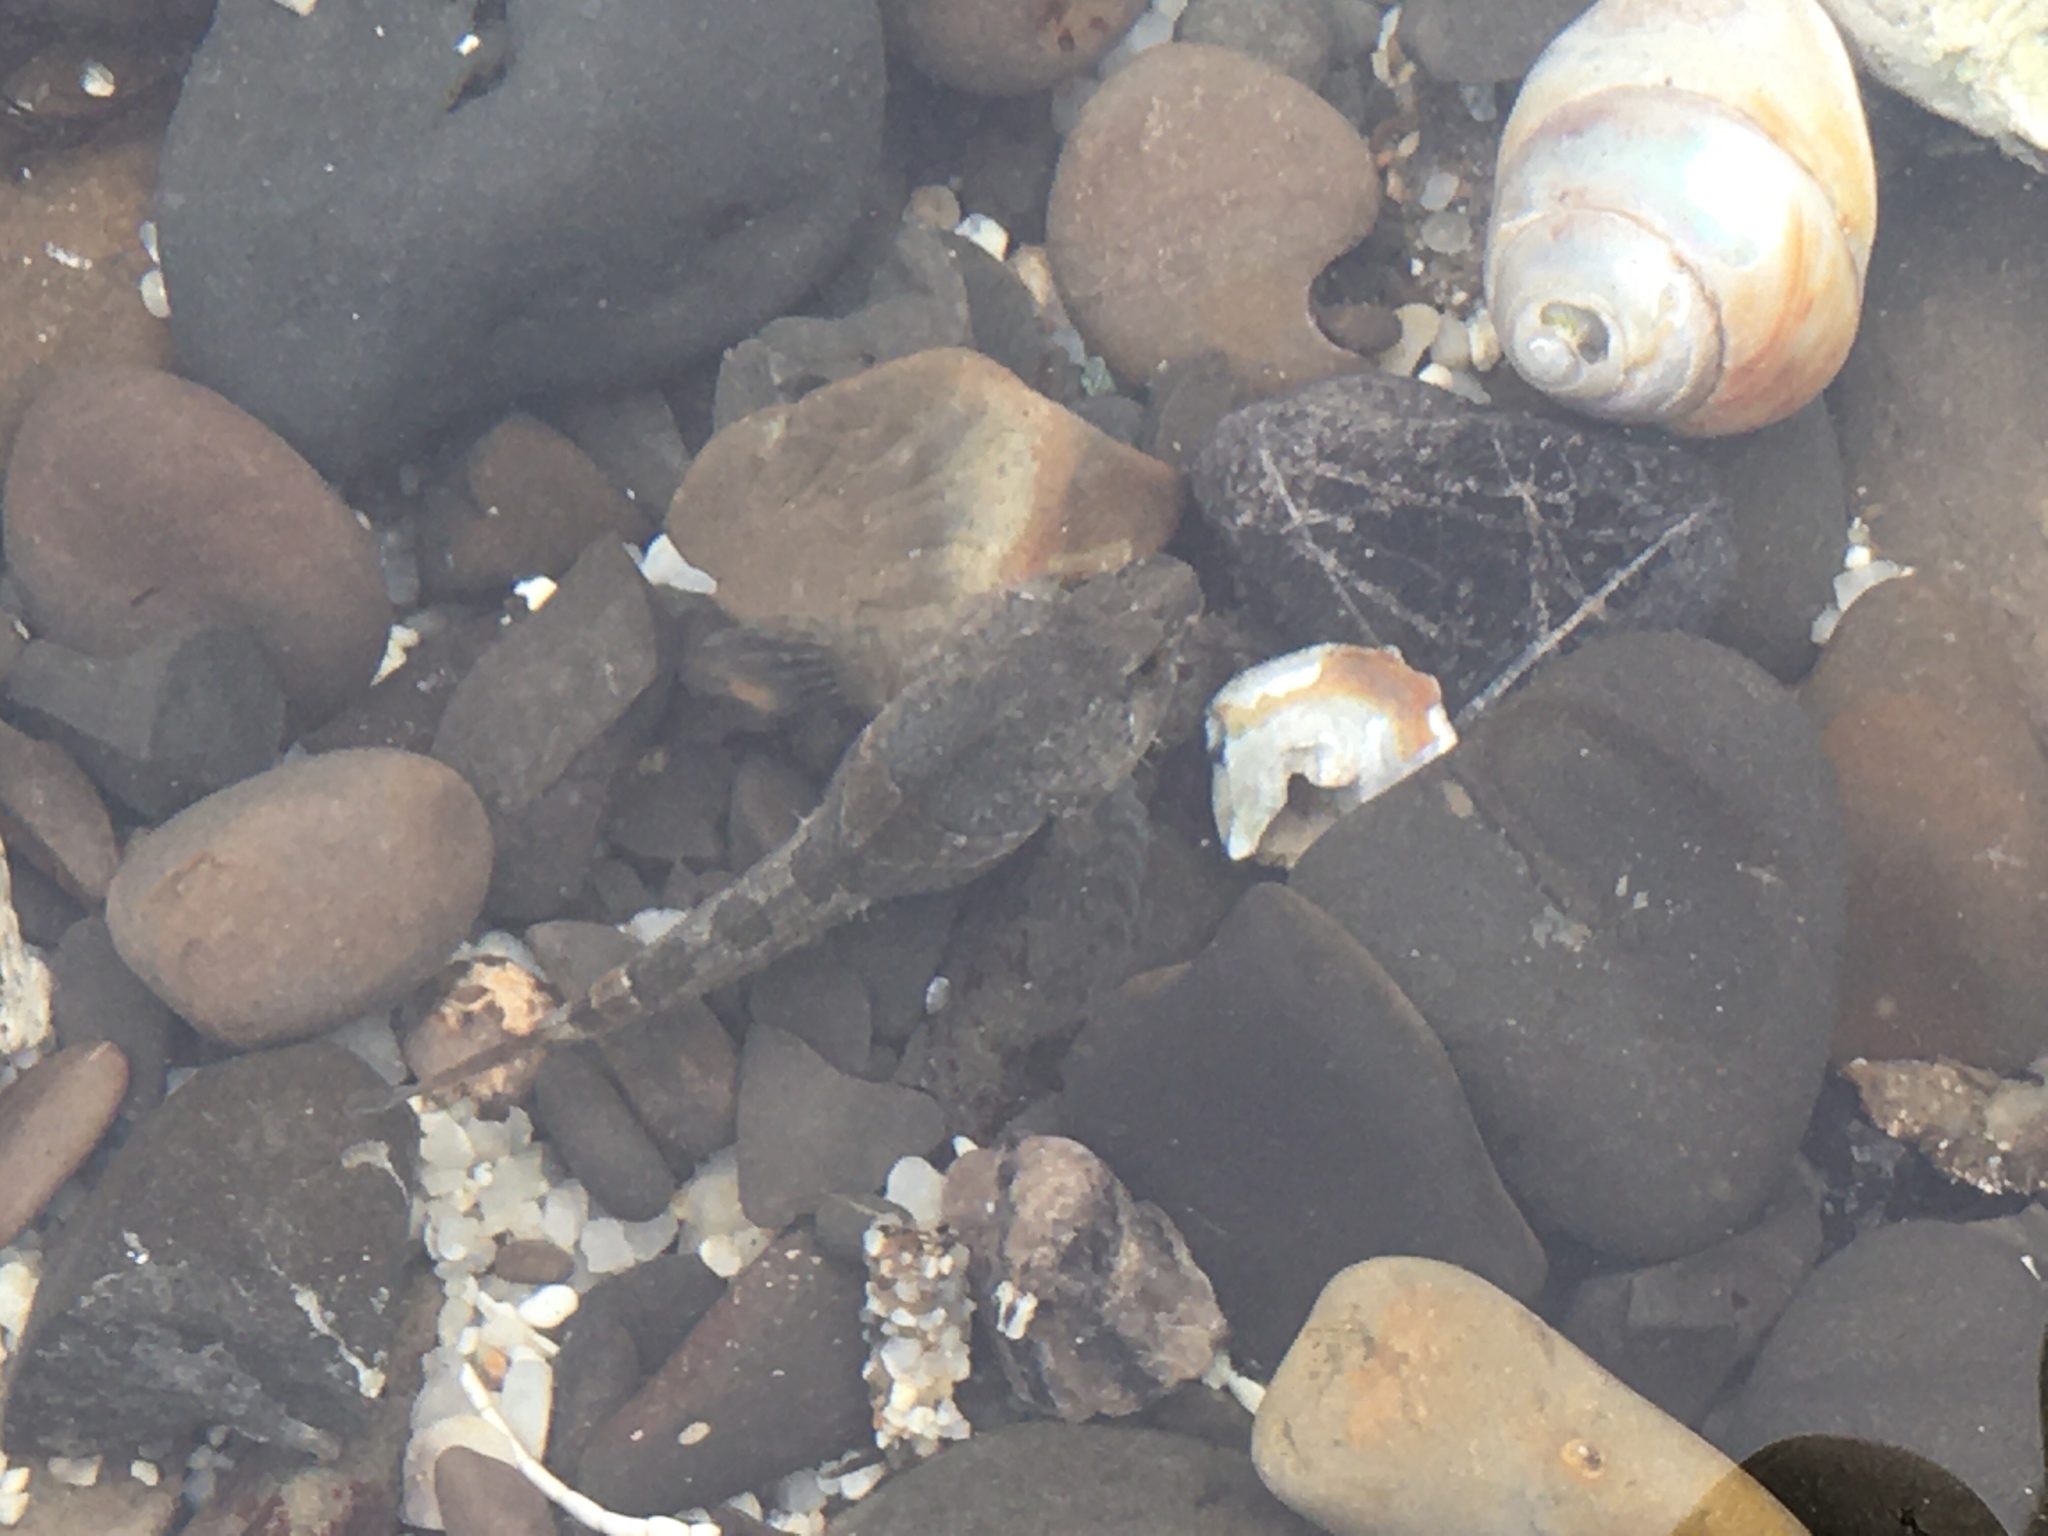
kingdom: Animalia
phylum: Chordata
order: Scorpaeniformes
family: Cottidae
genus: Oligocottus
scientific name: Oligocottus maculosus
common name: Tidepool sculpin
